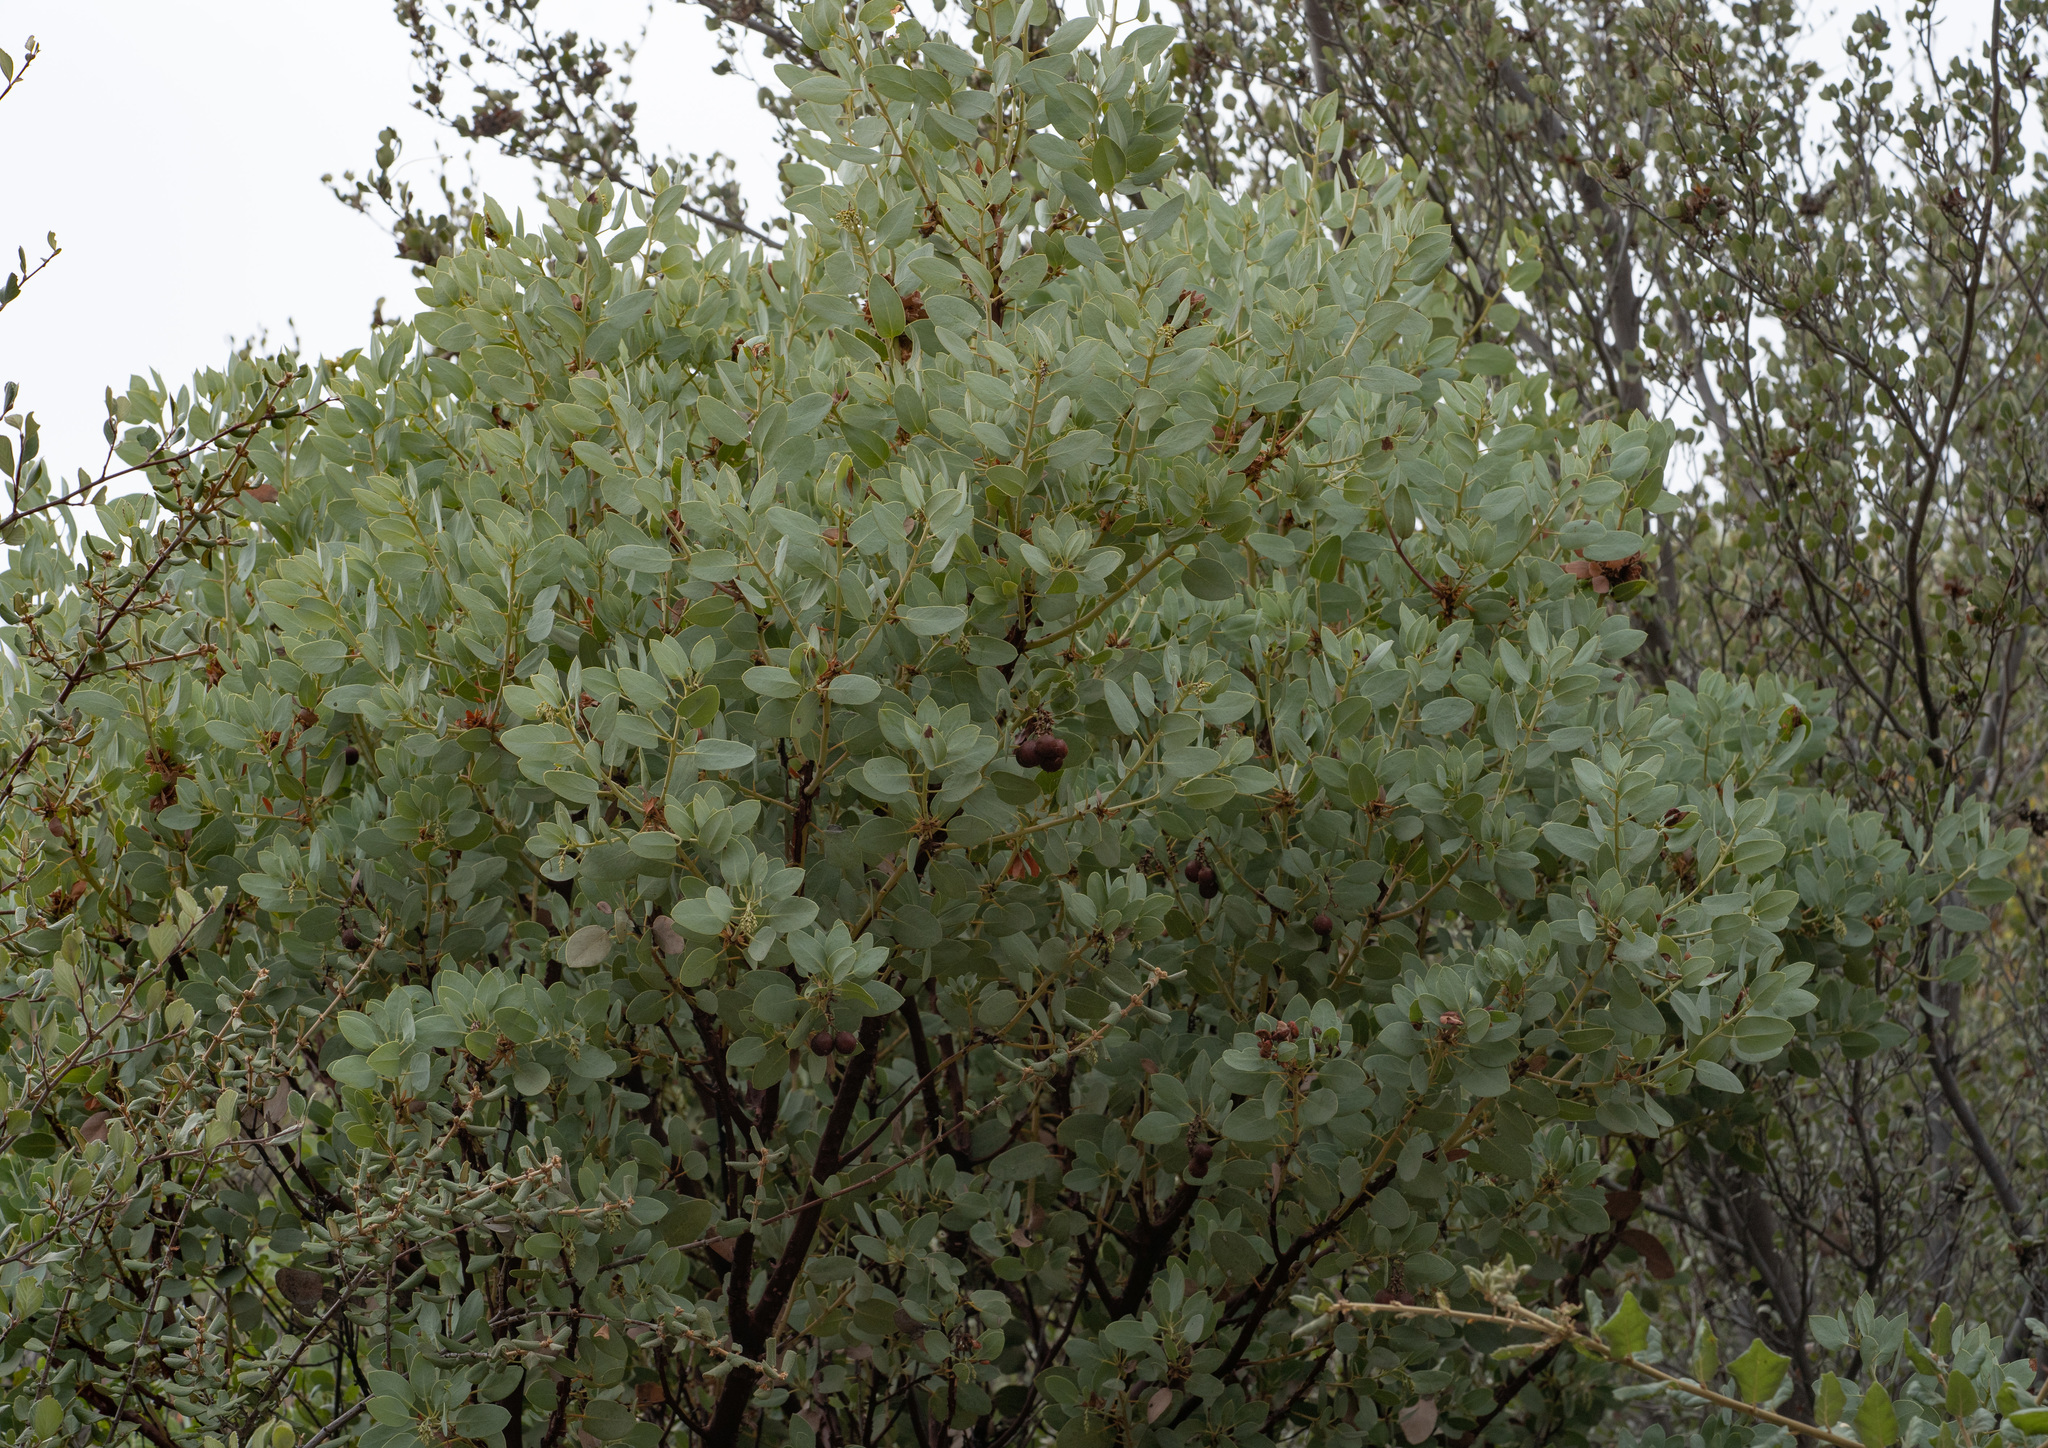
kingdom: Plantae
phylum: Tracheophyta
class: Magnoliopsida
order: Ericales
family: Ericaceae
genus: Arctostaphylos
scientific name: Arctostaphylos glauca
